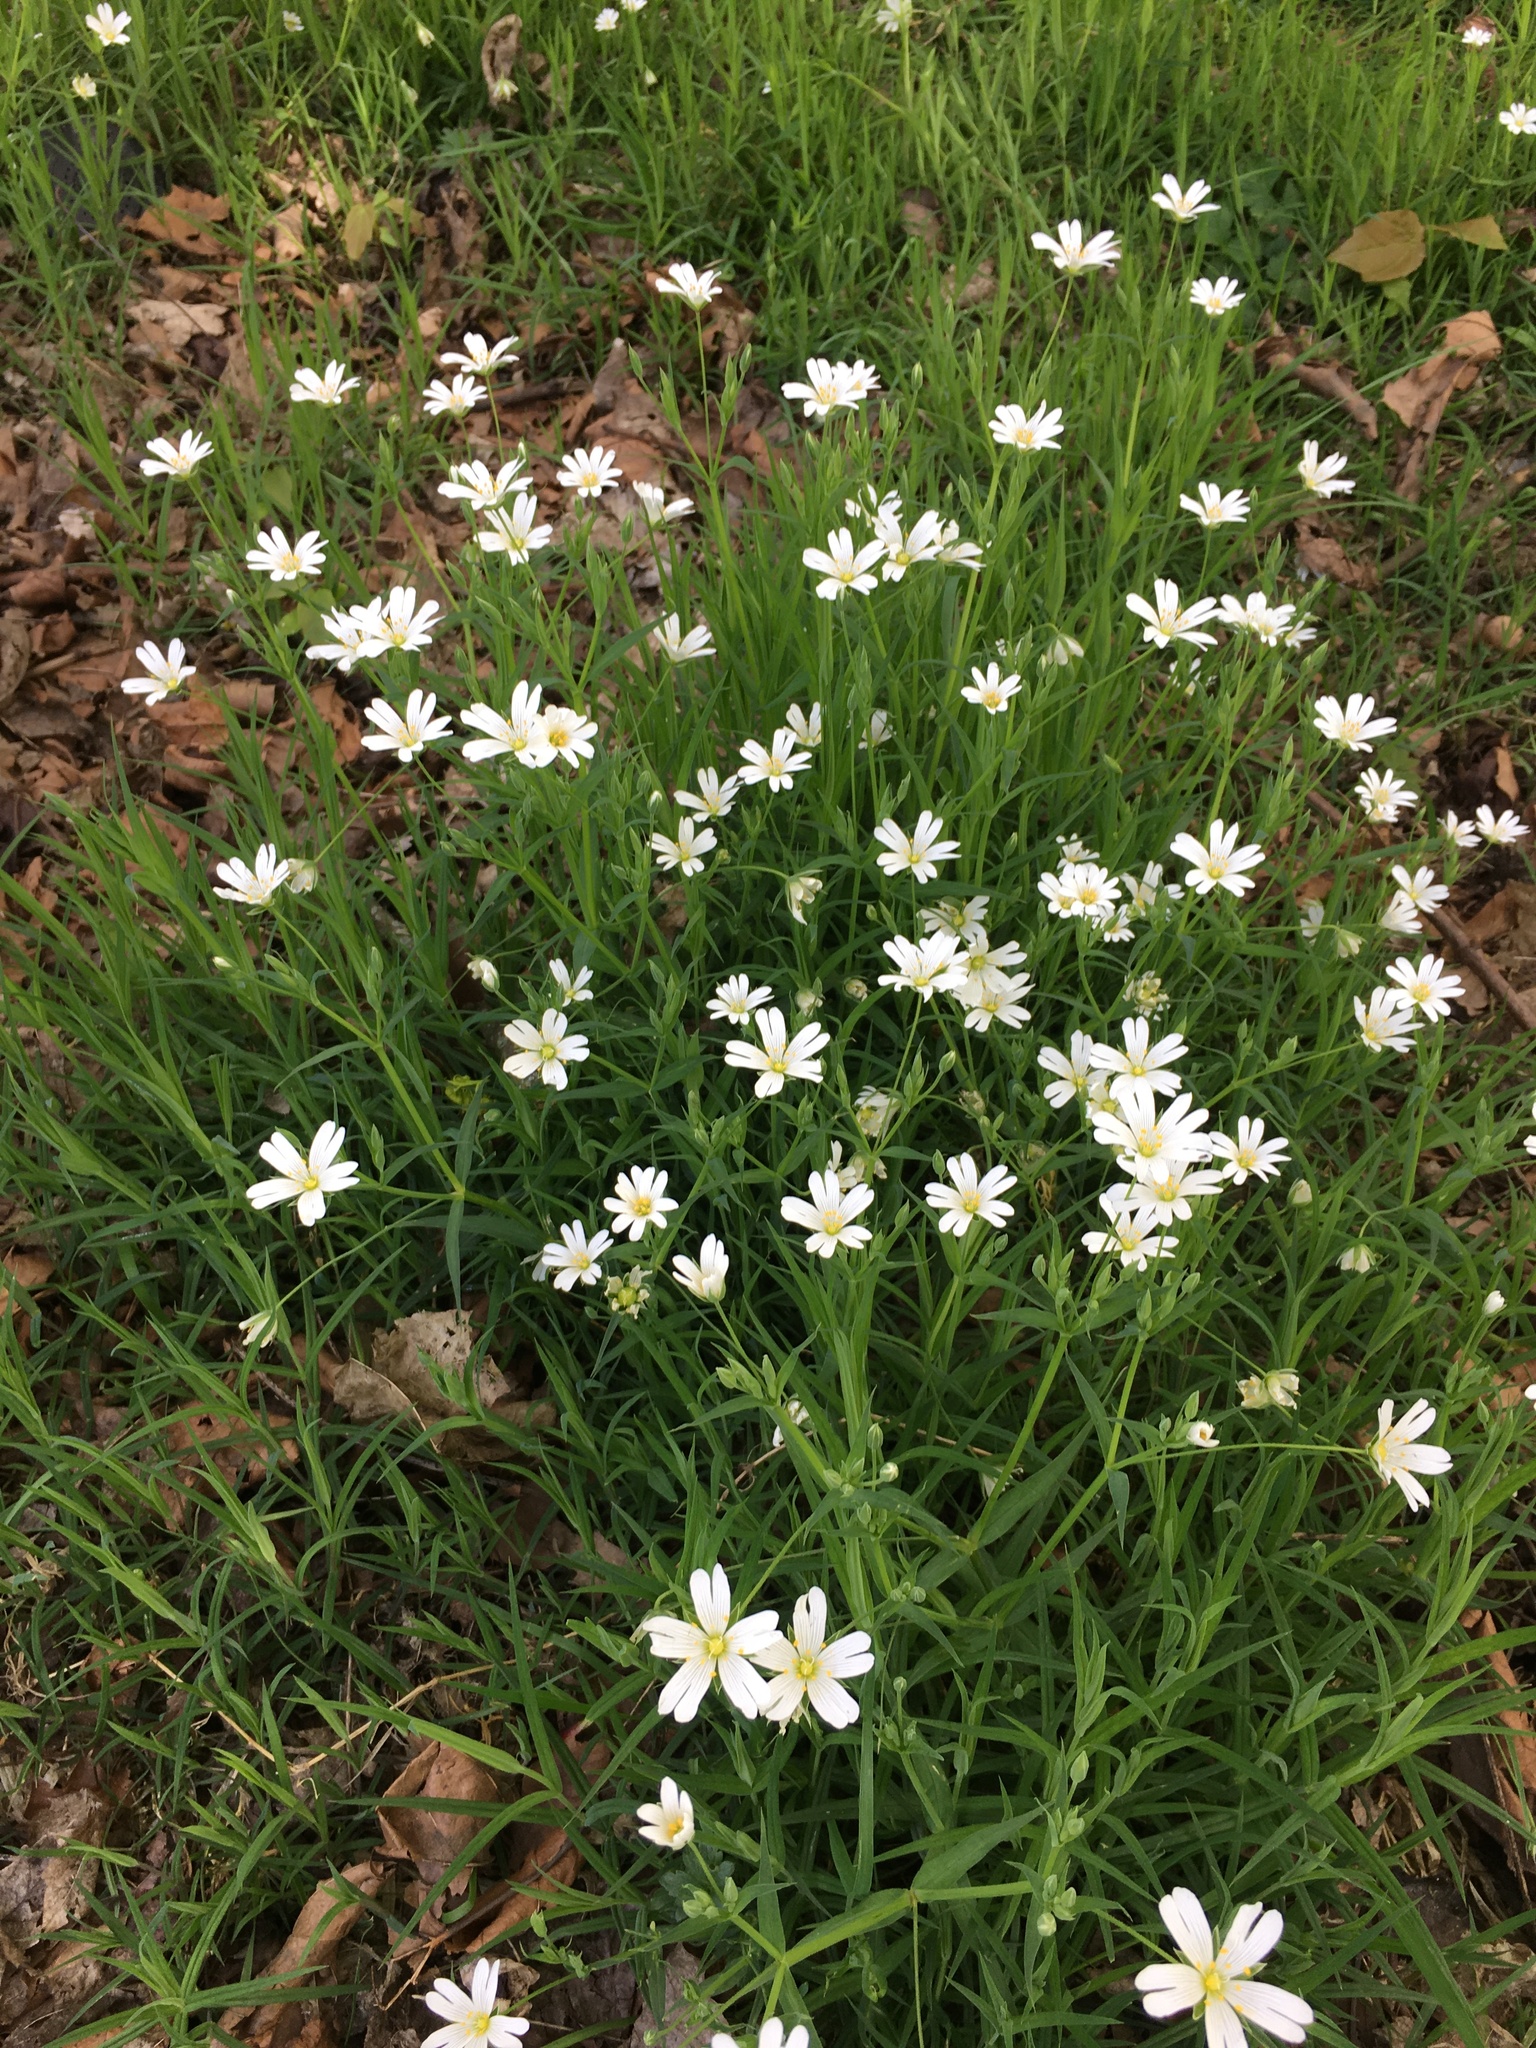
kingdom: Plantae
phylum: Tracheophyta
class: Magnoliopsida
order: Caryophyllales
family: Caryophyllaceae
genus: Rabelera
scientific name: Rabelera holostea
